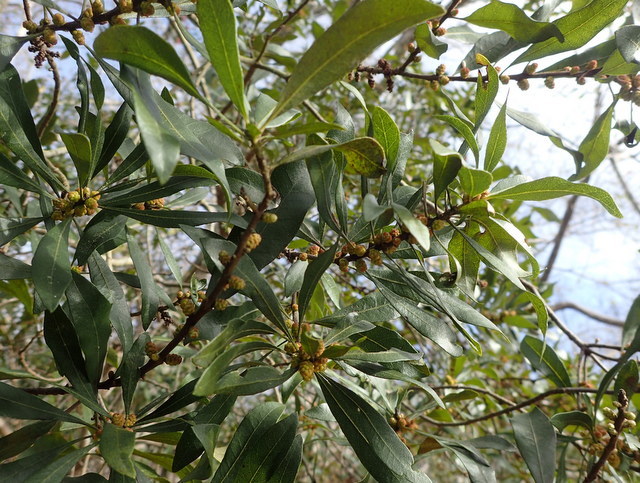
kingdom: Plantae
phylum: Tracheophyta
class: Magnoliopsida
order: Fagales
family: Myricaceae
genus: Morella
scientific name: Morella cerifera
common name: Wax myrtle
